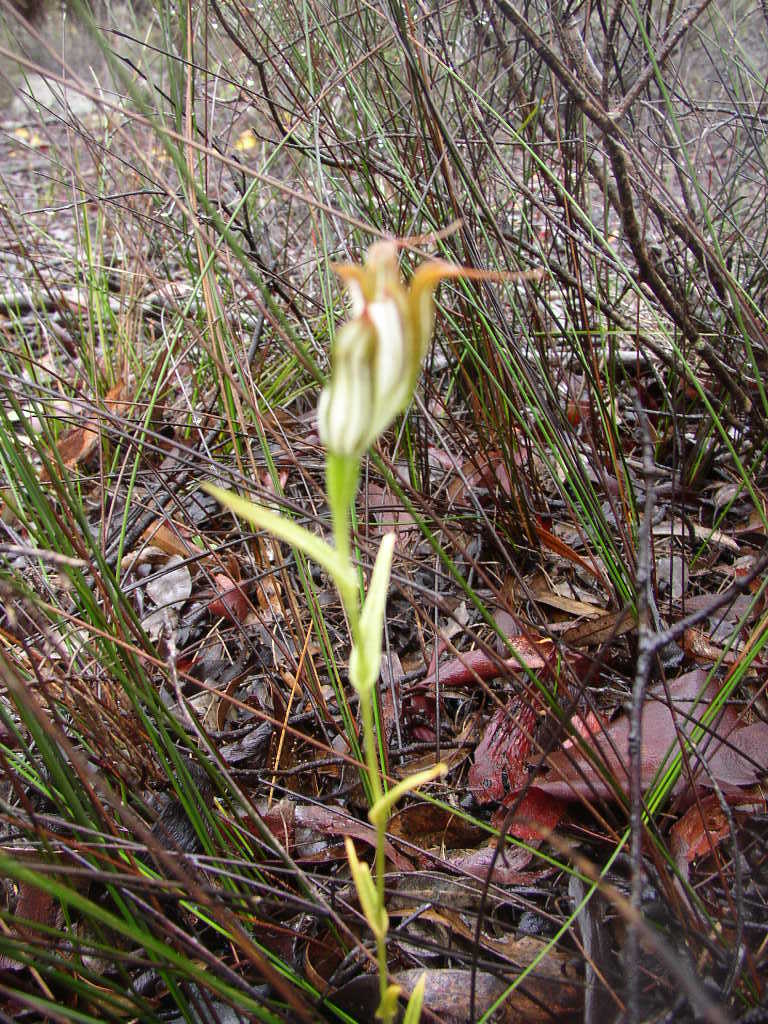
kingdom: Plantae
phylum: Tracheophyta
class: Liliopsida
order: Asparagales
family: Orchidaceae
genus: Pterostylis
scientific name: Pterostylis recurva
